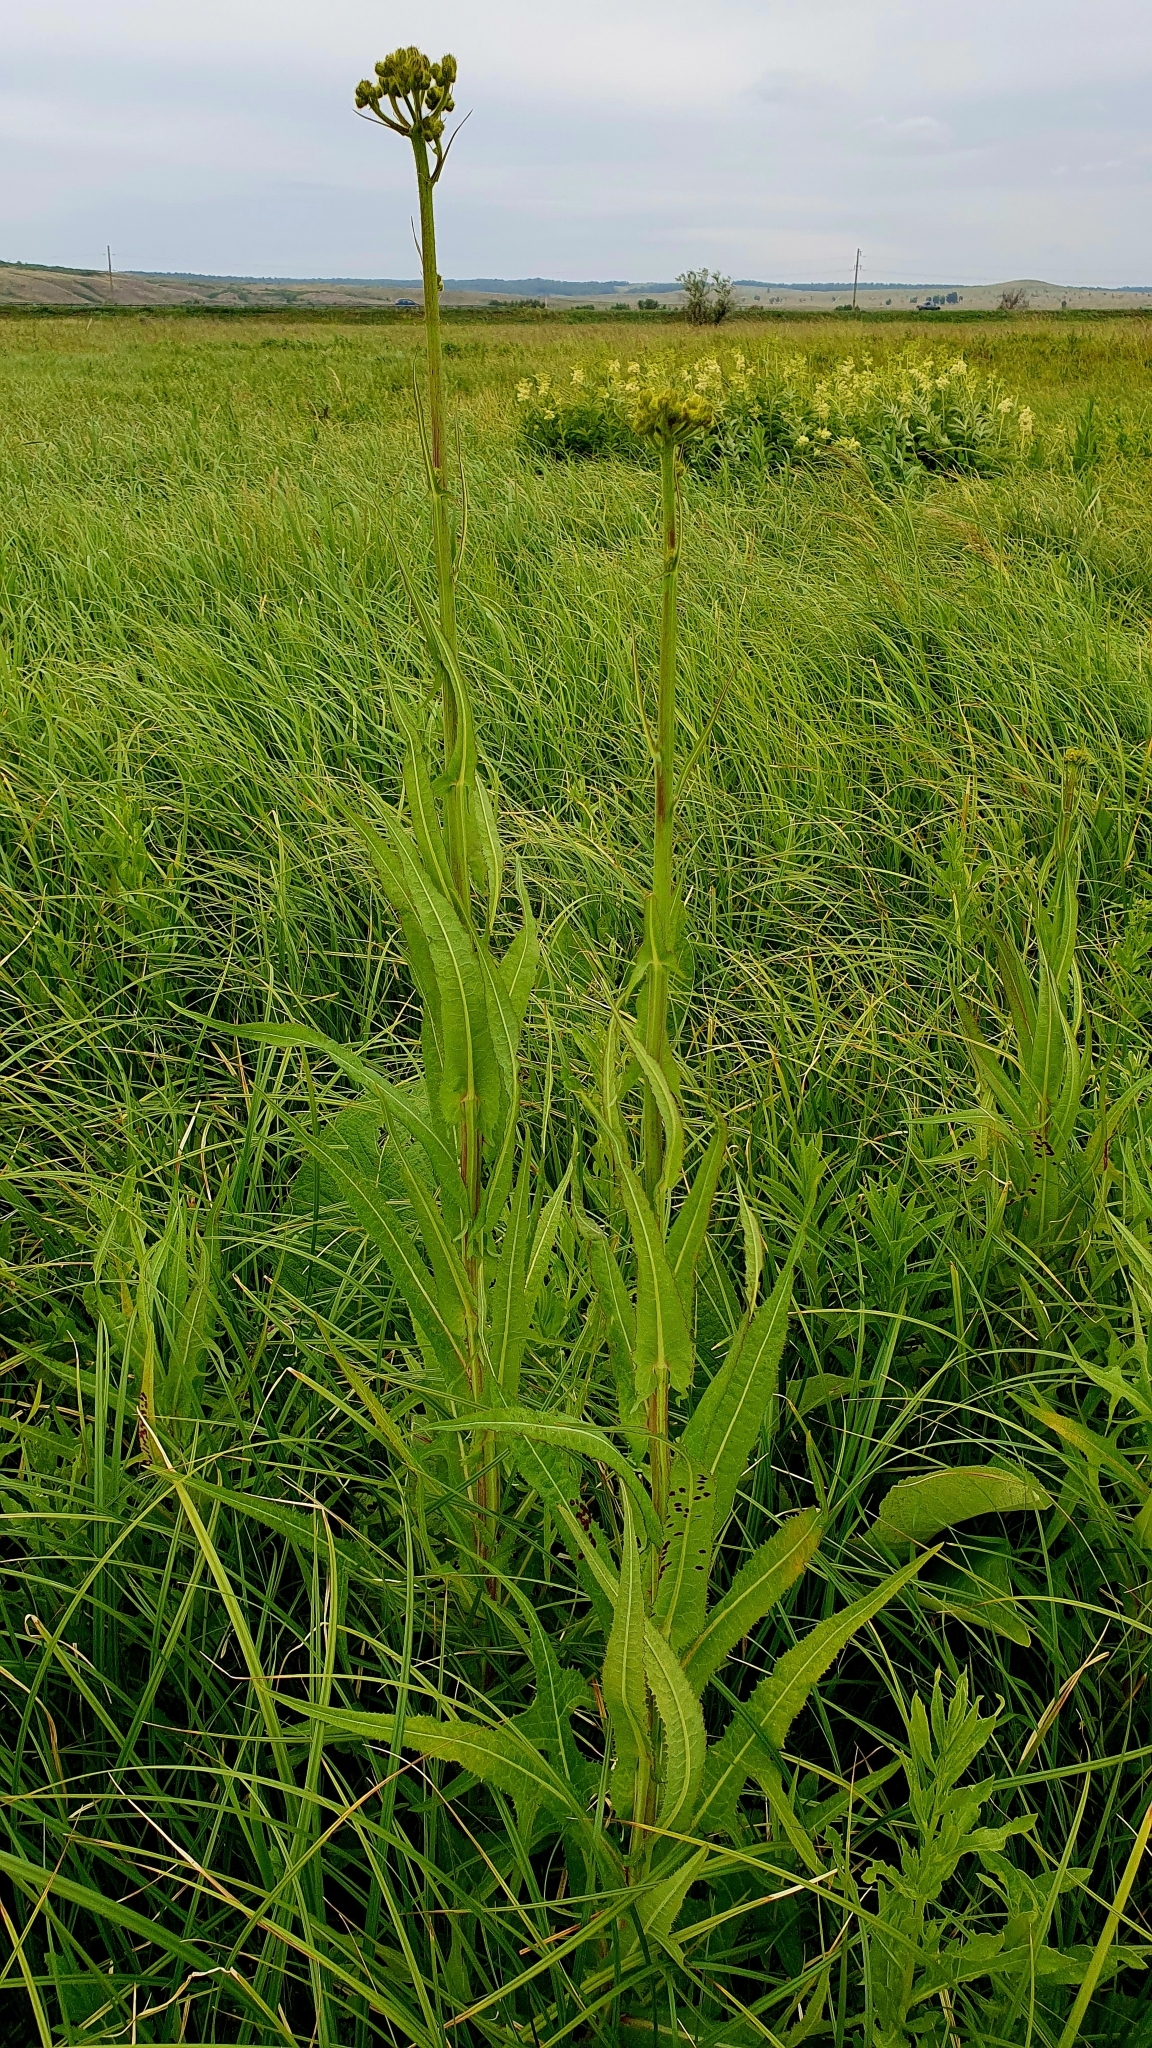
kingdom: Plantae
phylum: Tracheophyta
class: Magnoliopsida
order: Asterales
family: Asteraceae
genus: Sonchus
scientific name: Sonchus palustris
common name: Marsh sow-thistle
